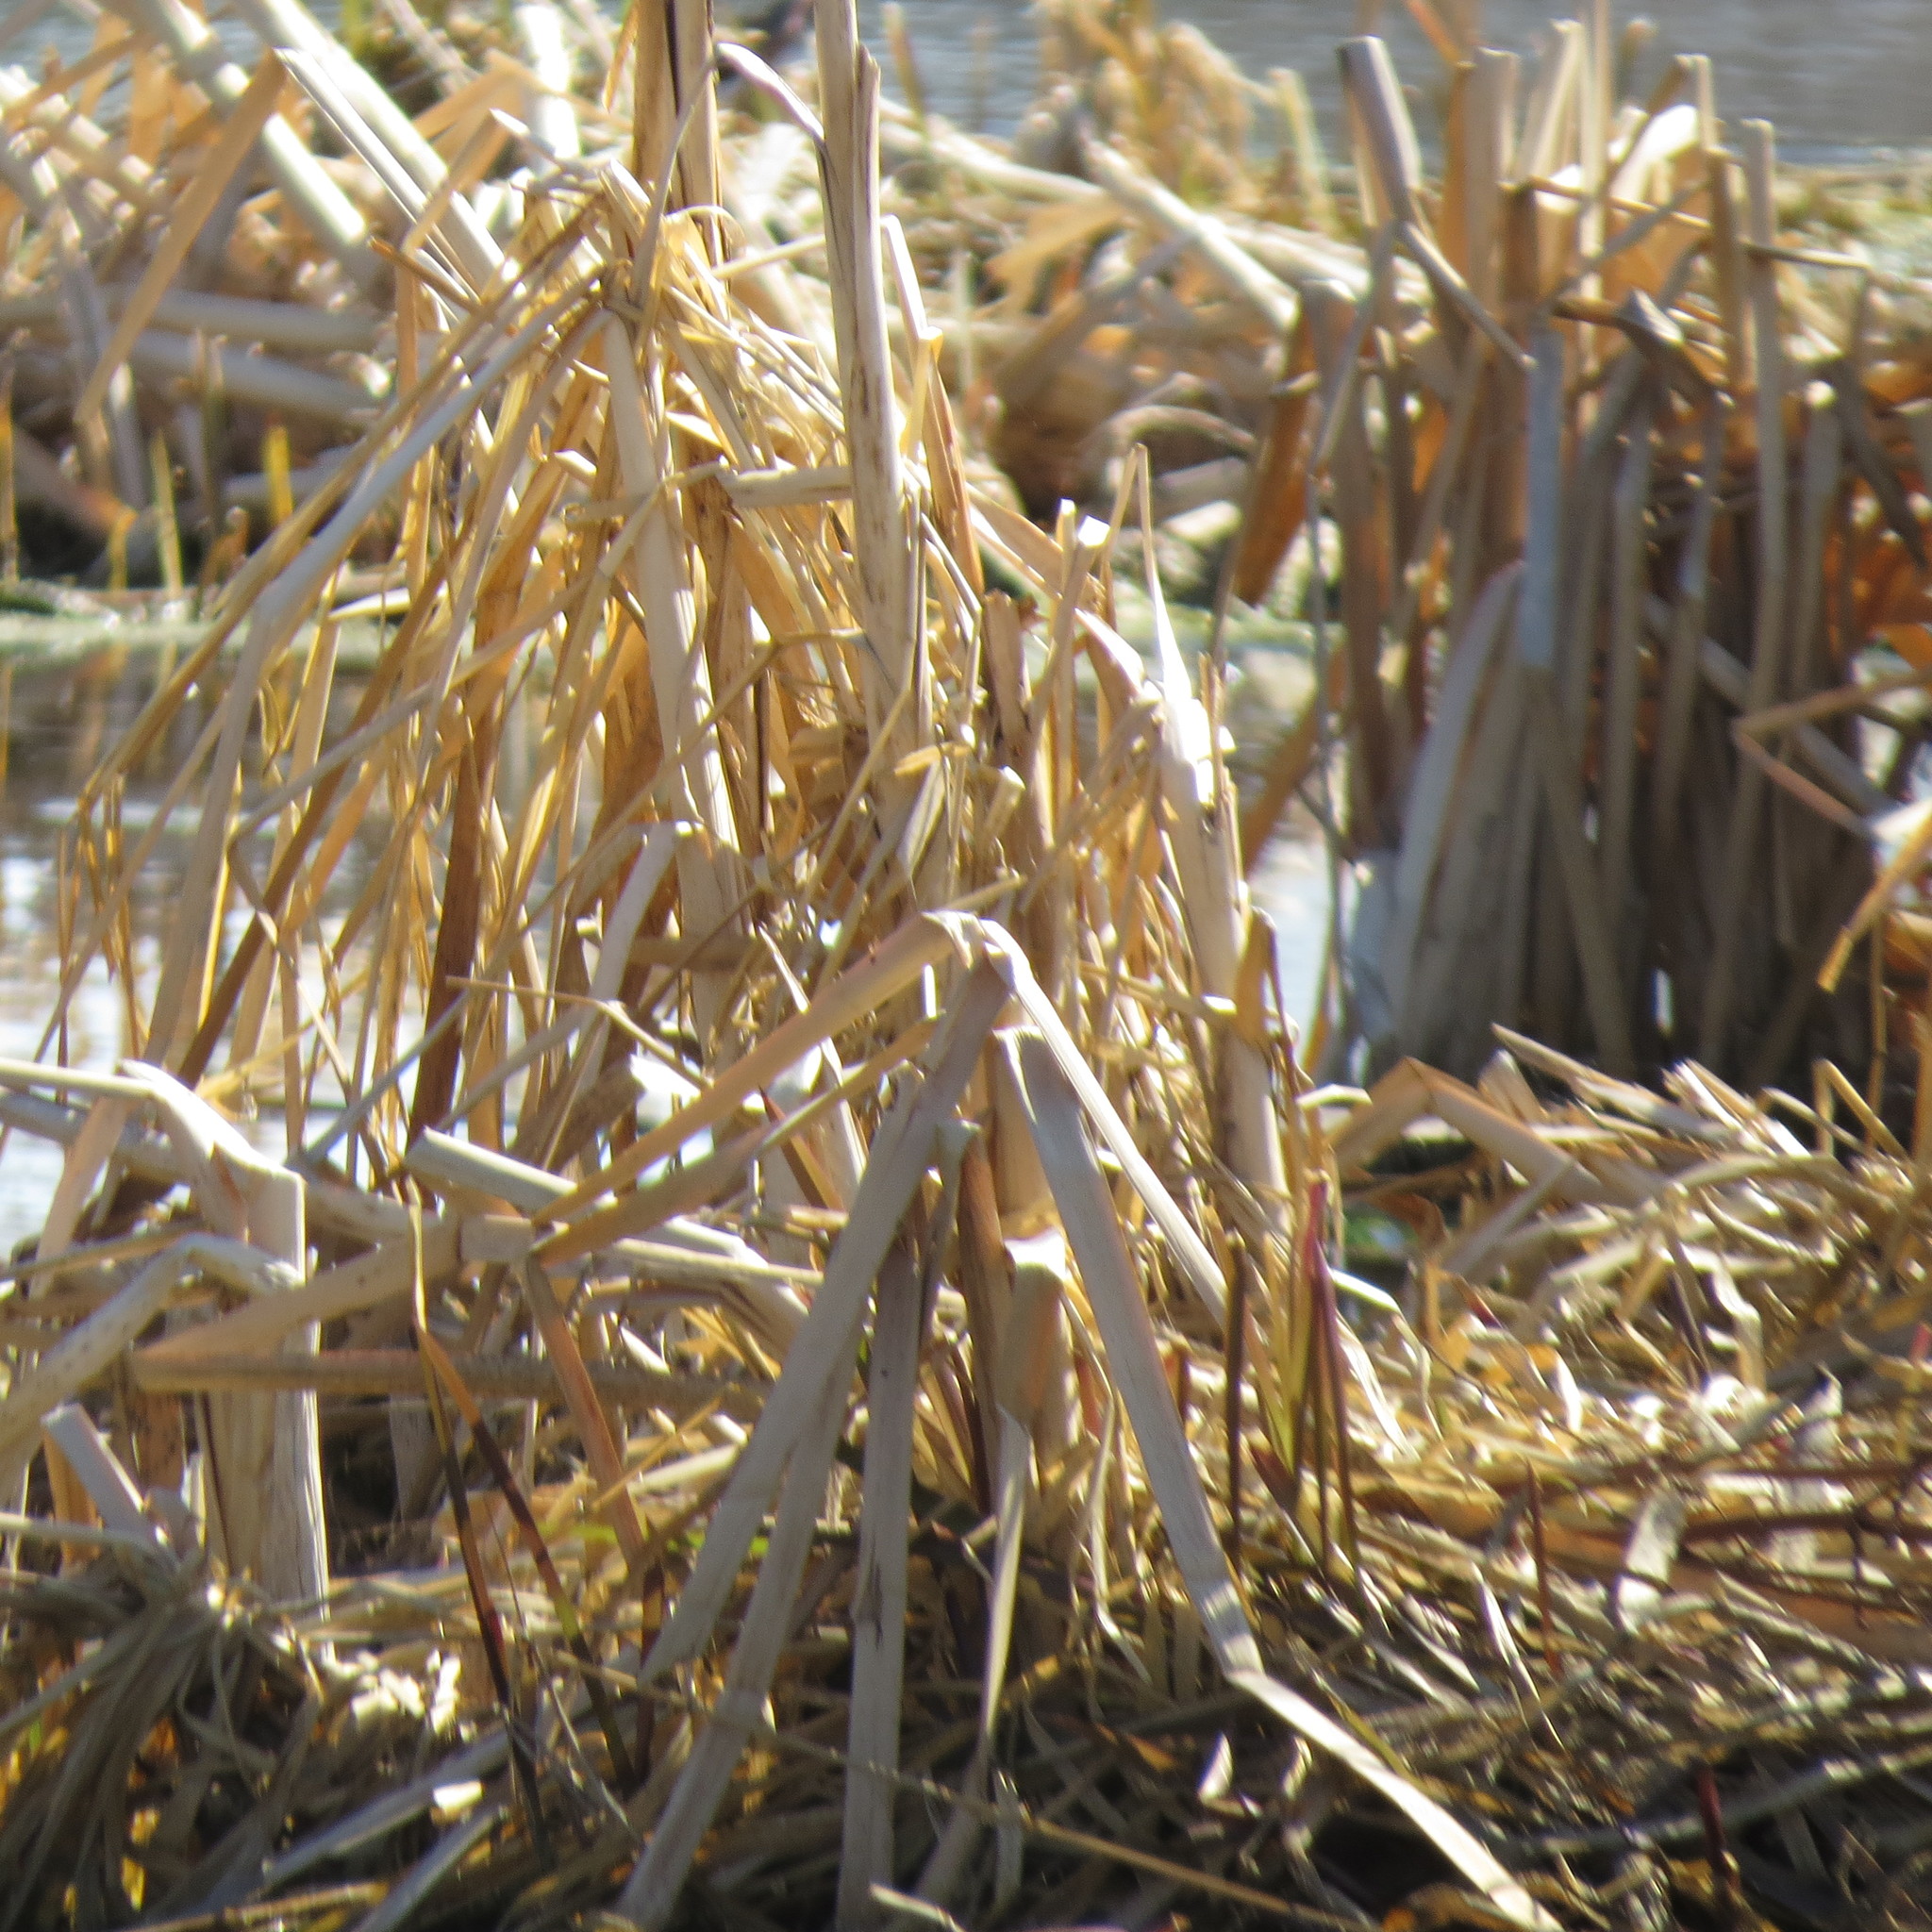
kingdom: Plantae
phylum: Tracheophyta
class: Liliopsida
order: Poales
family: Typhaceae
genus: Typha
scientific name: Typha latifolia
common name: Broadleaf cattail
